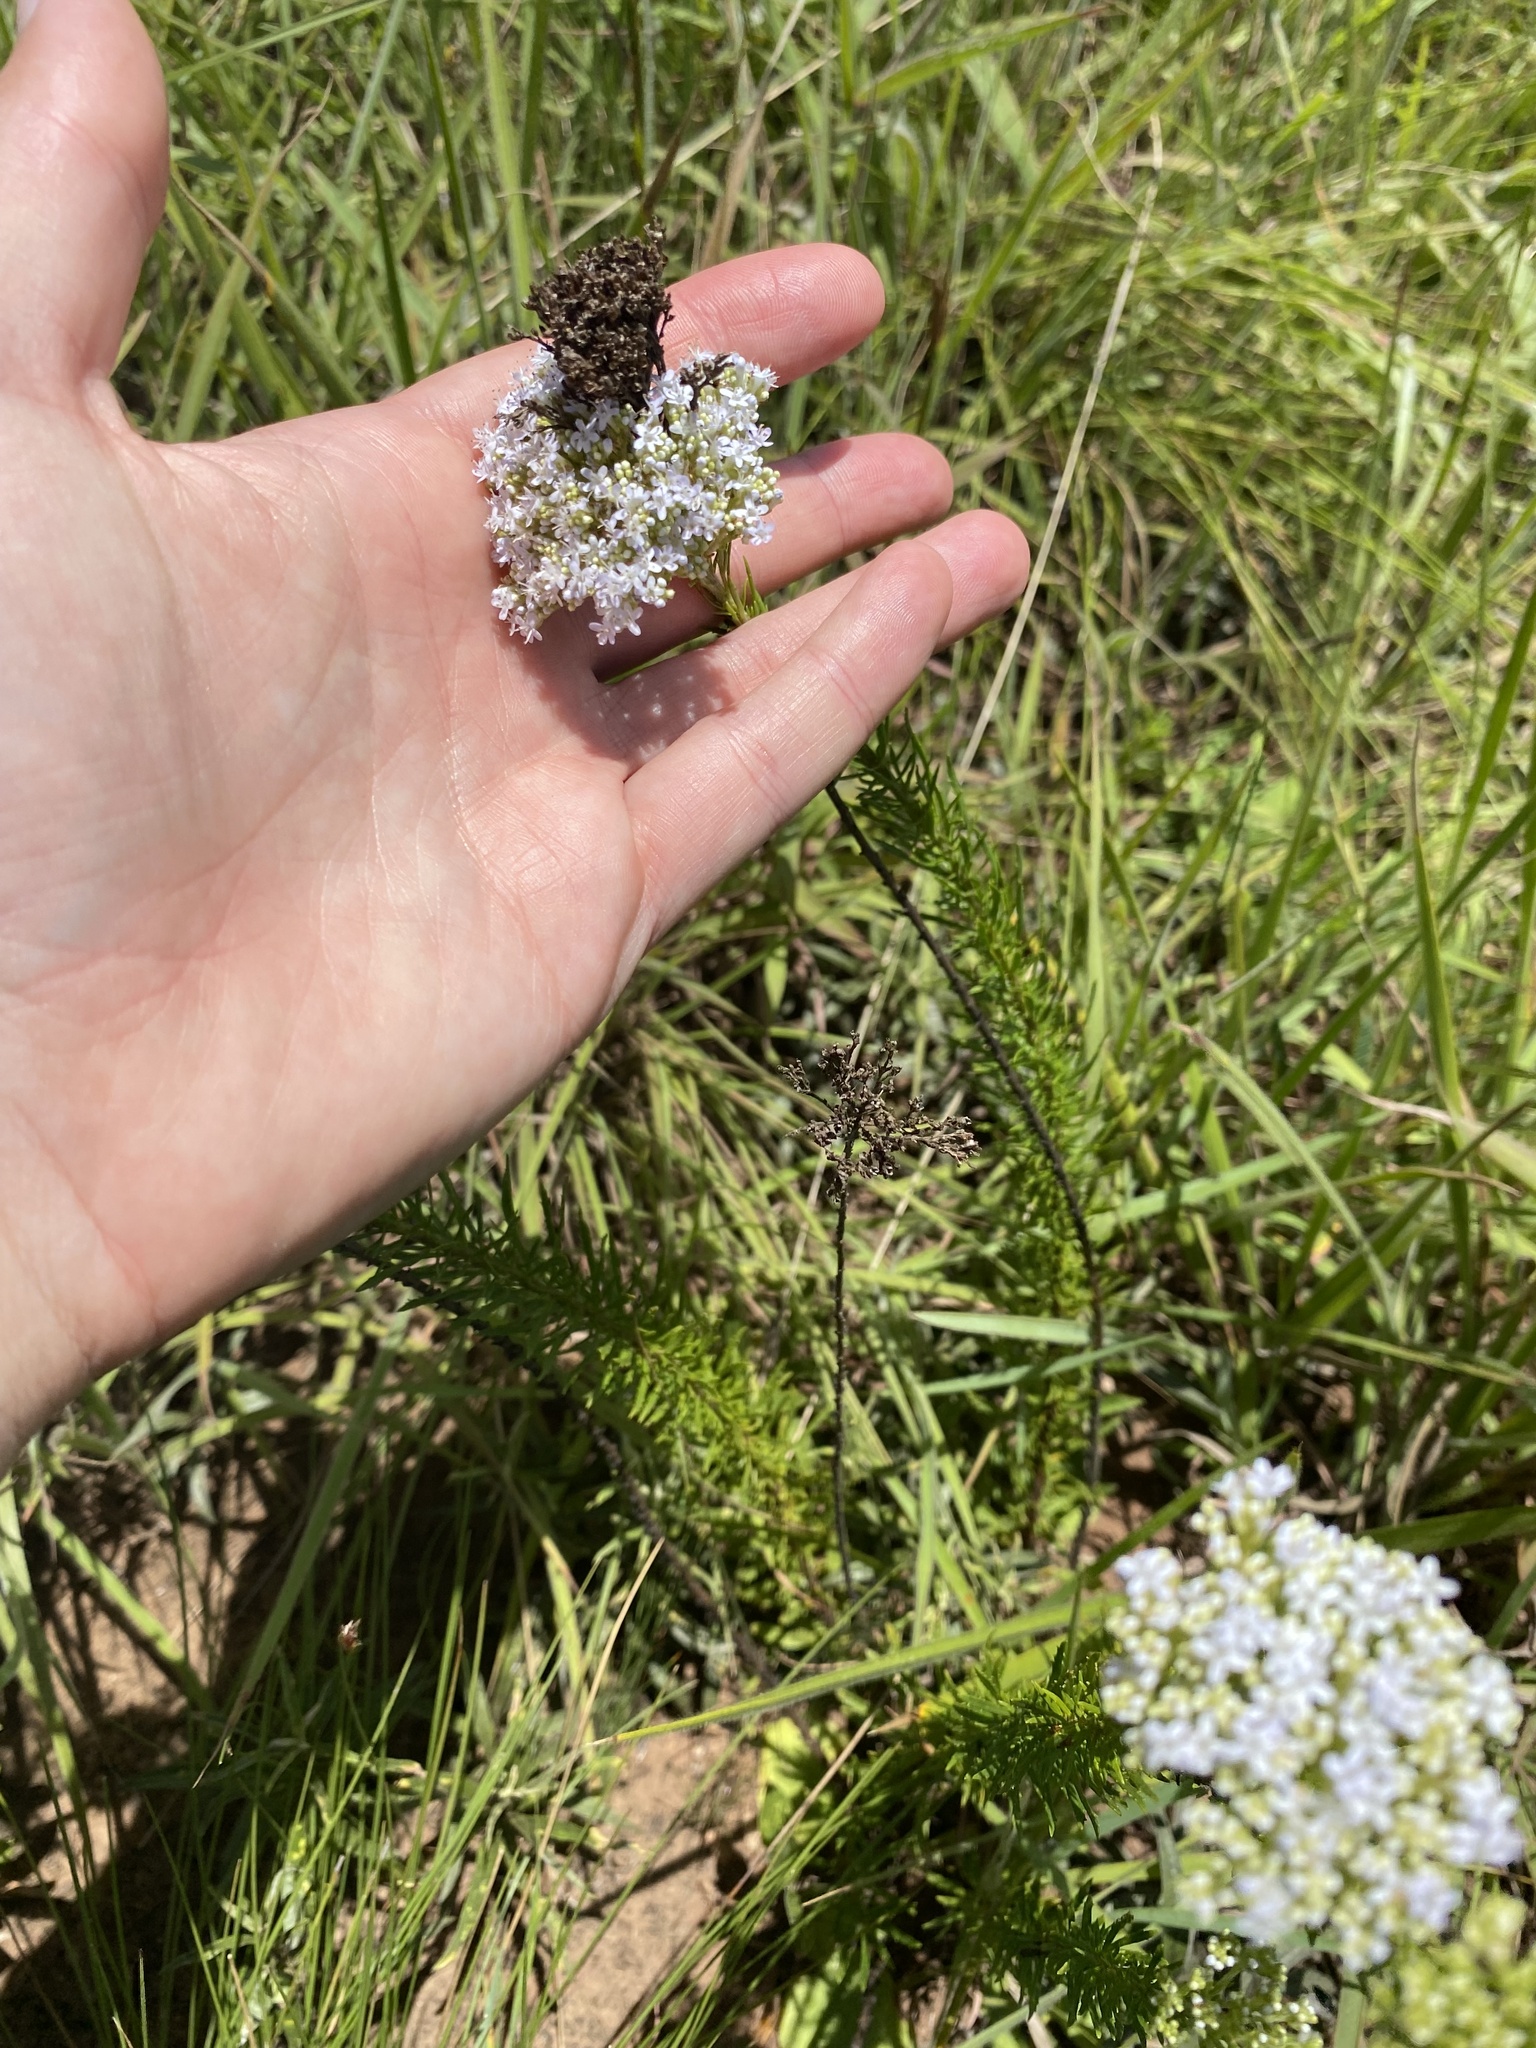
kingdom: Plantae
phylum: Tracheophyta
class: Magnoliopsida
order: Lamiales
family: Scrophulariaceae
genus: Tetraselago
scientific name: Tetraselago natalensis
